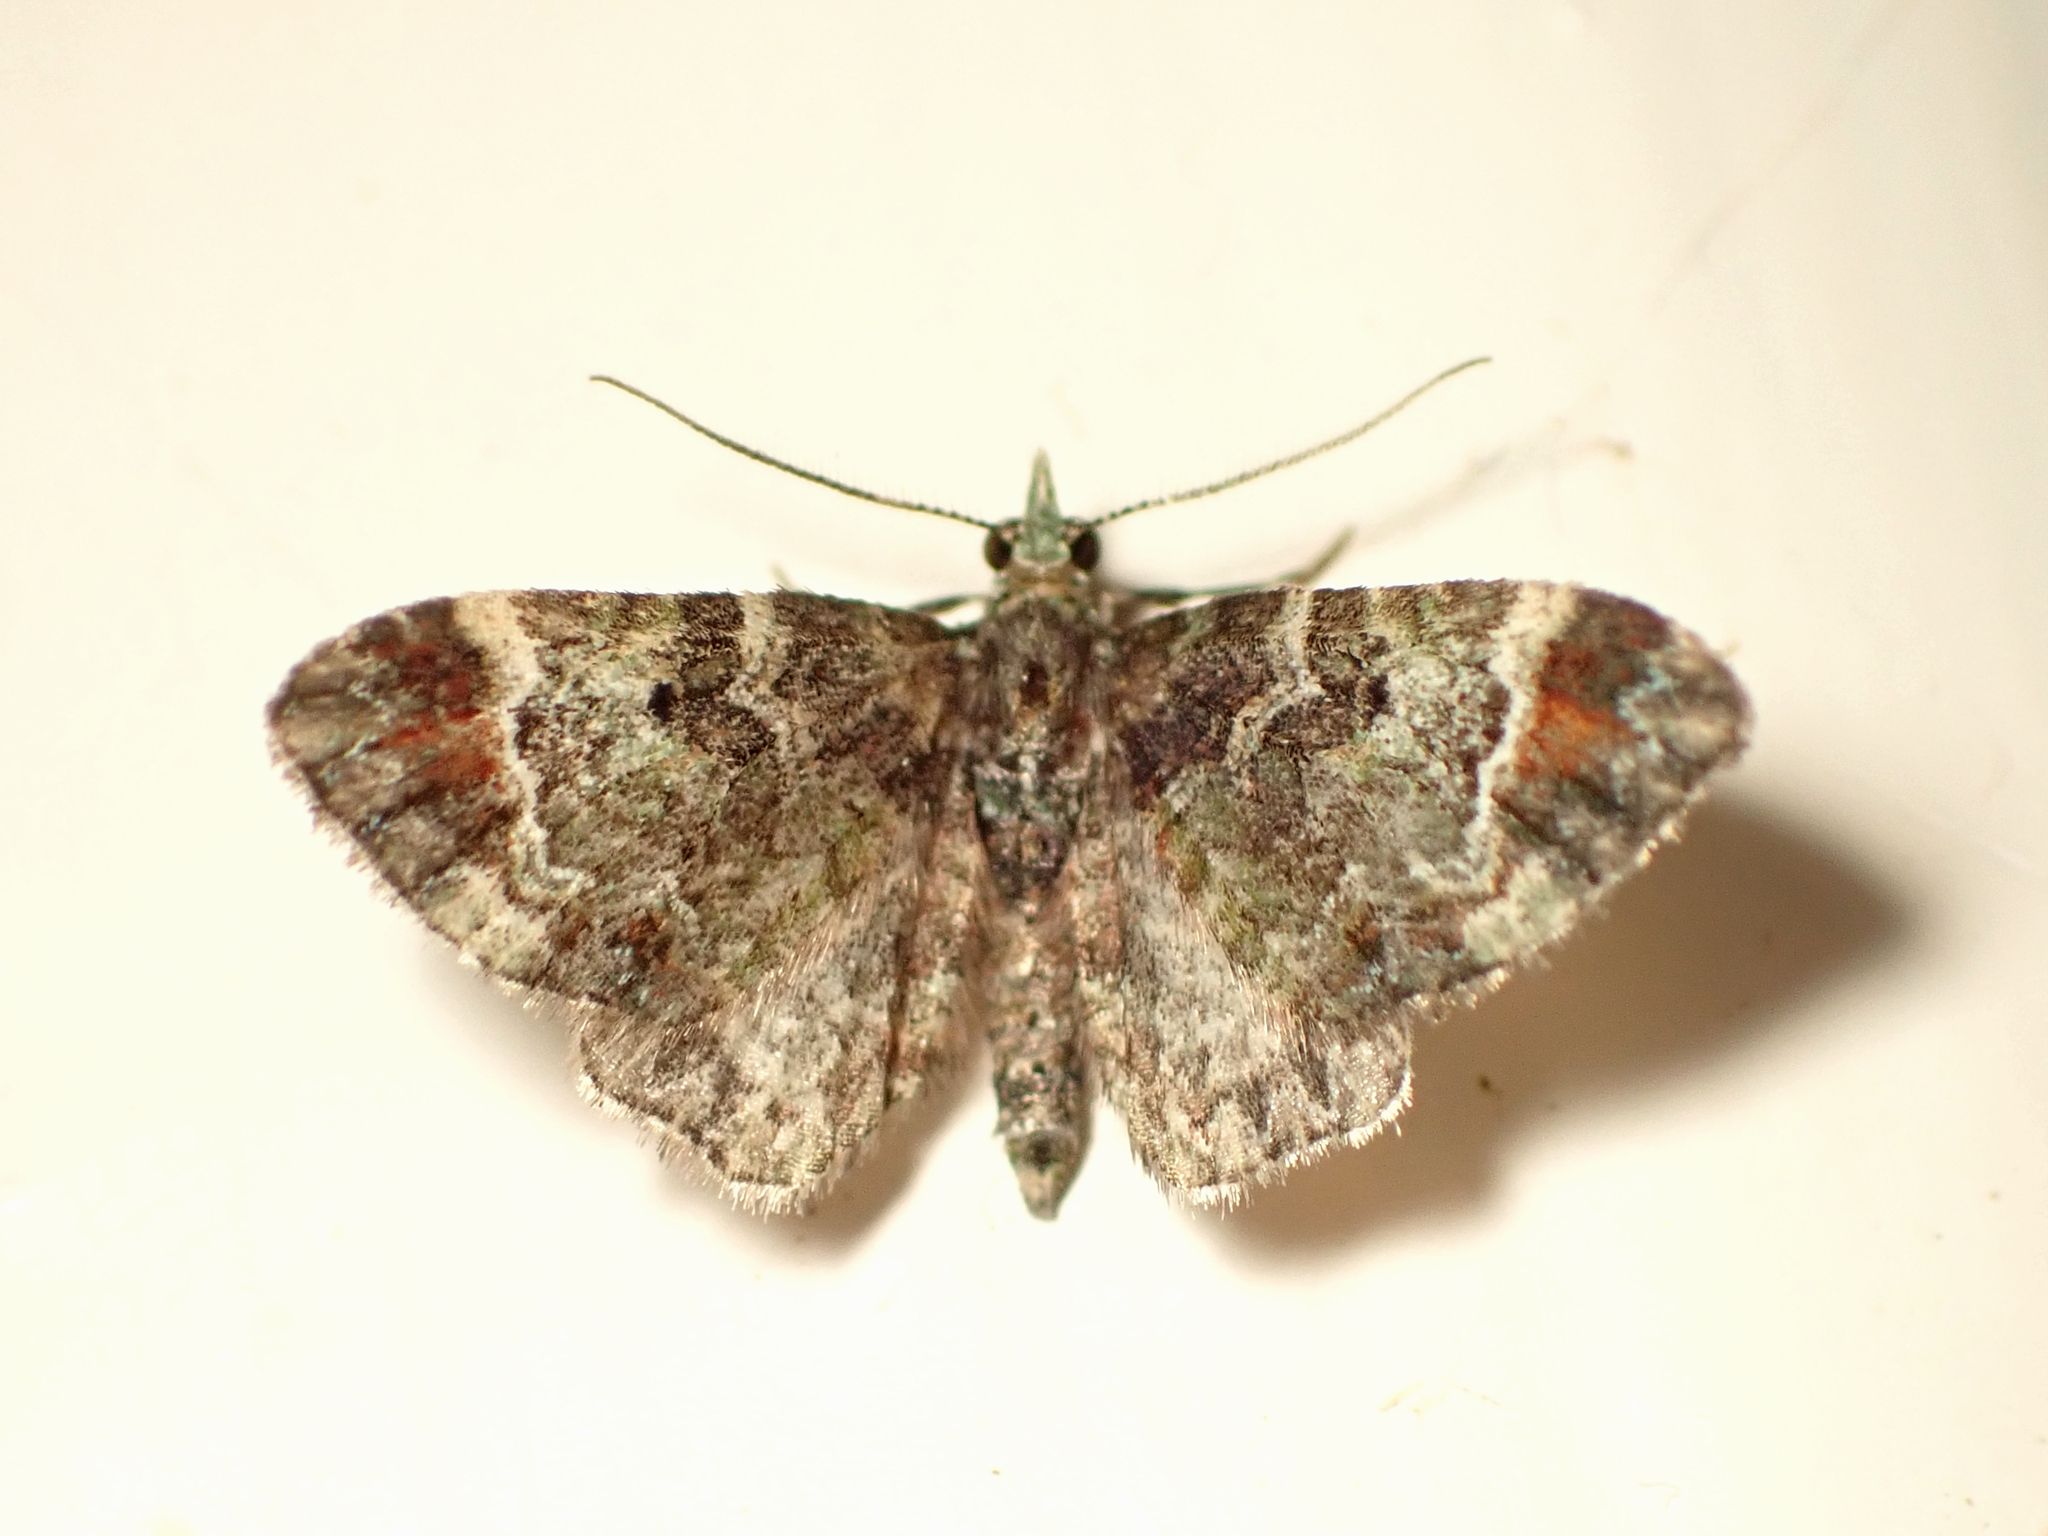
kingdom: Animalia
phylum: Arthropoda
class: Insecta
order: Lepidoptera
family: Geometridae
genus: Pasiphila
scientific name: Pasiphila sandycias
